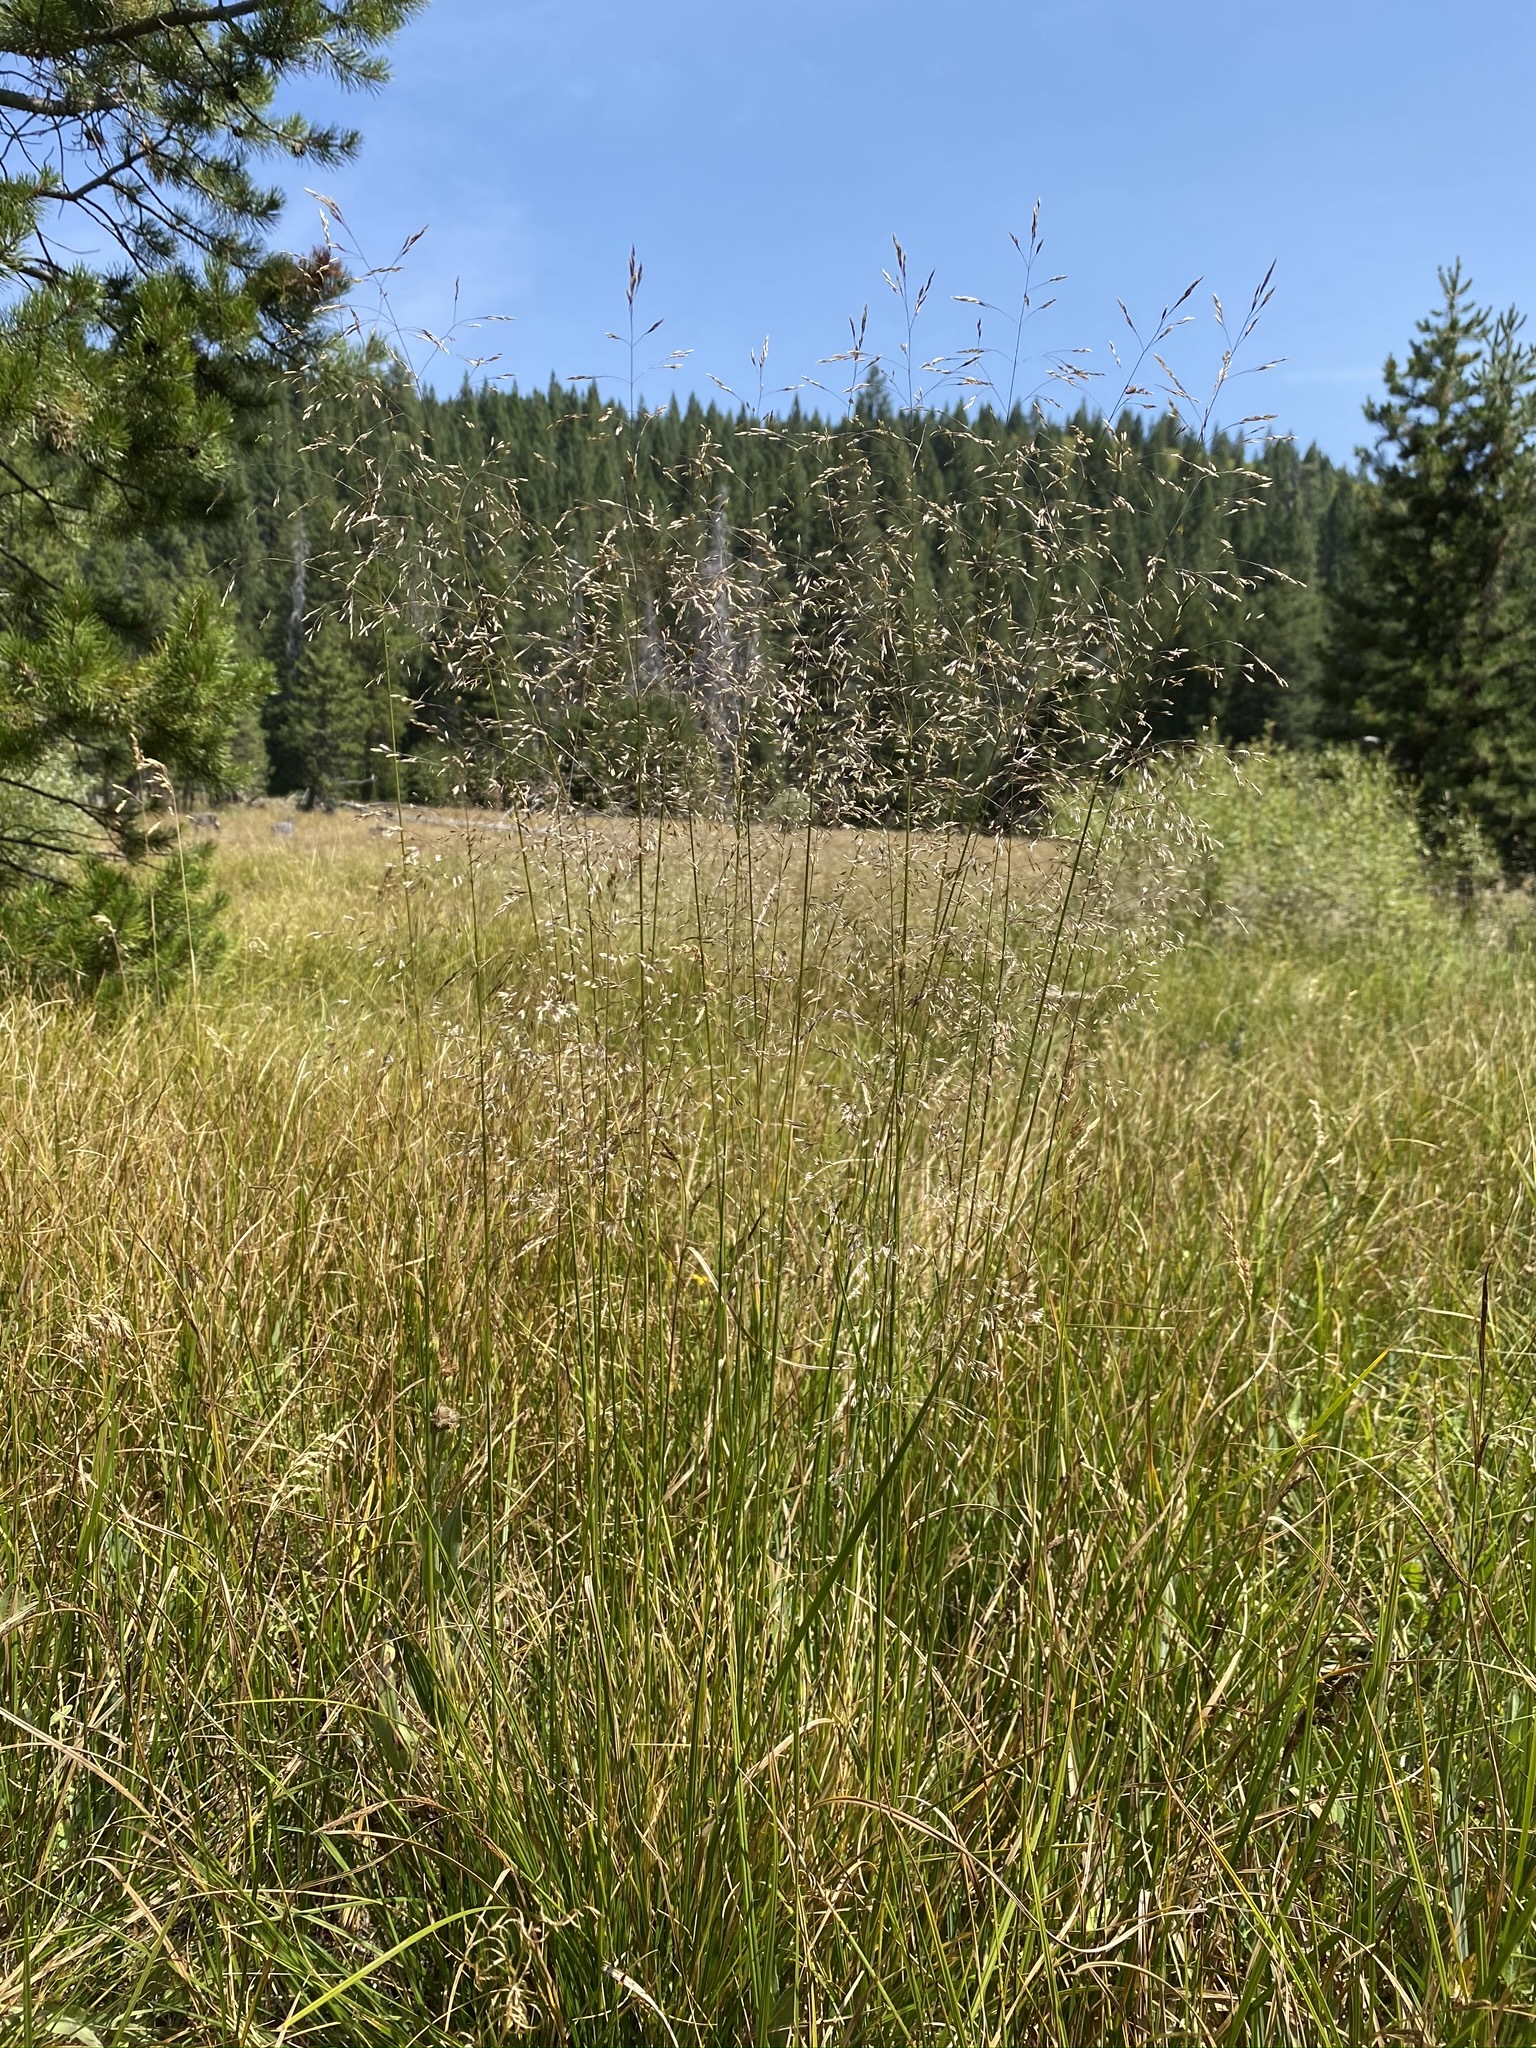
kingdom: Plantae
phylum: Tracheophyta
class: Liliopsida
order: Poales
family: Poaceae
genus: Deschampsia
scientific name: Deschampsia cespitosa
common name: Tufted hair-grass
